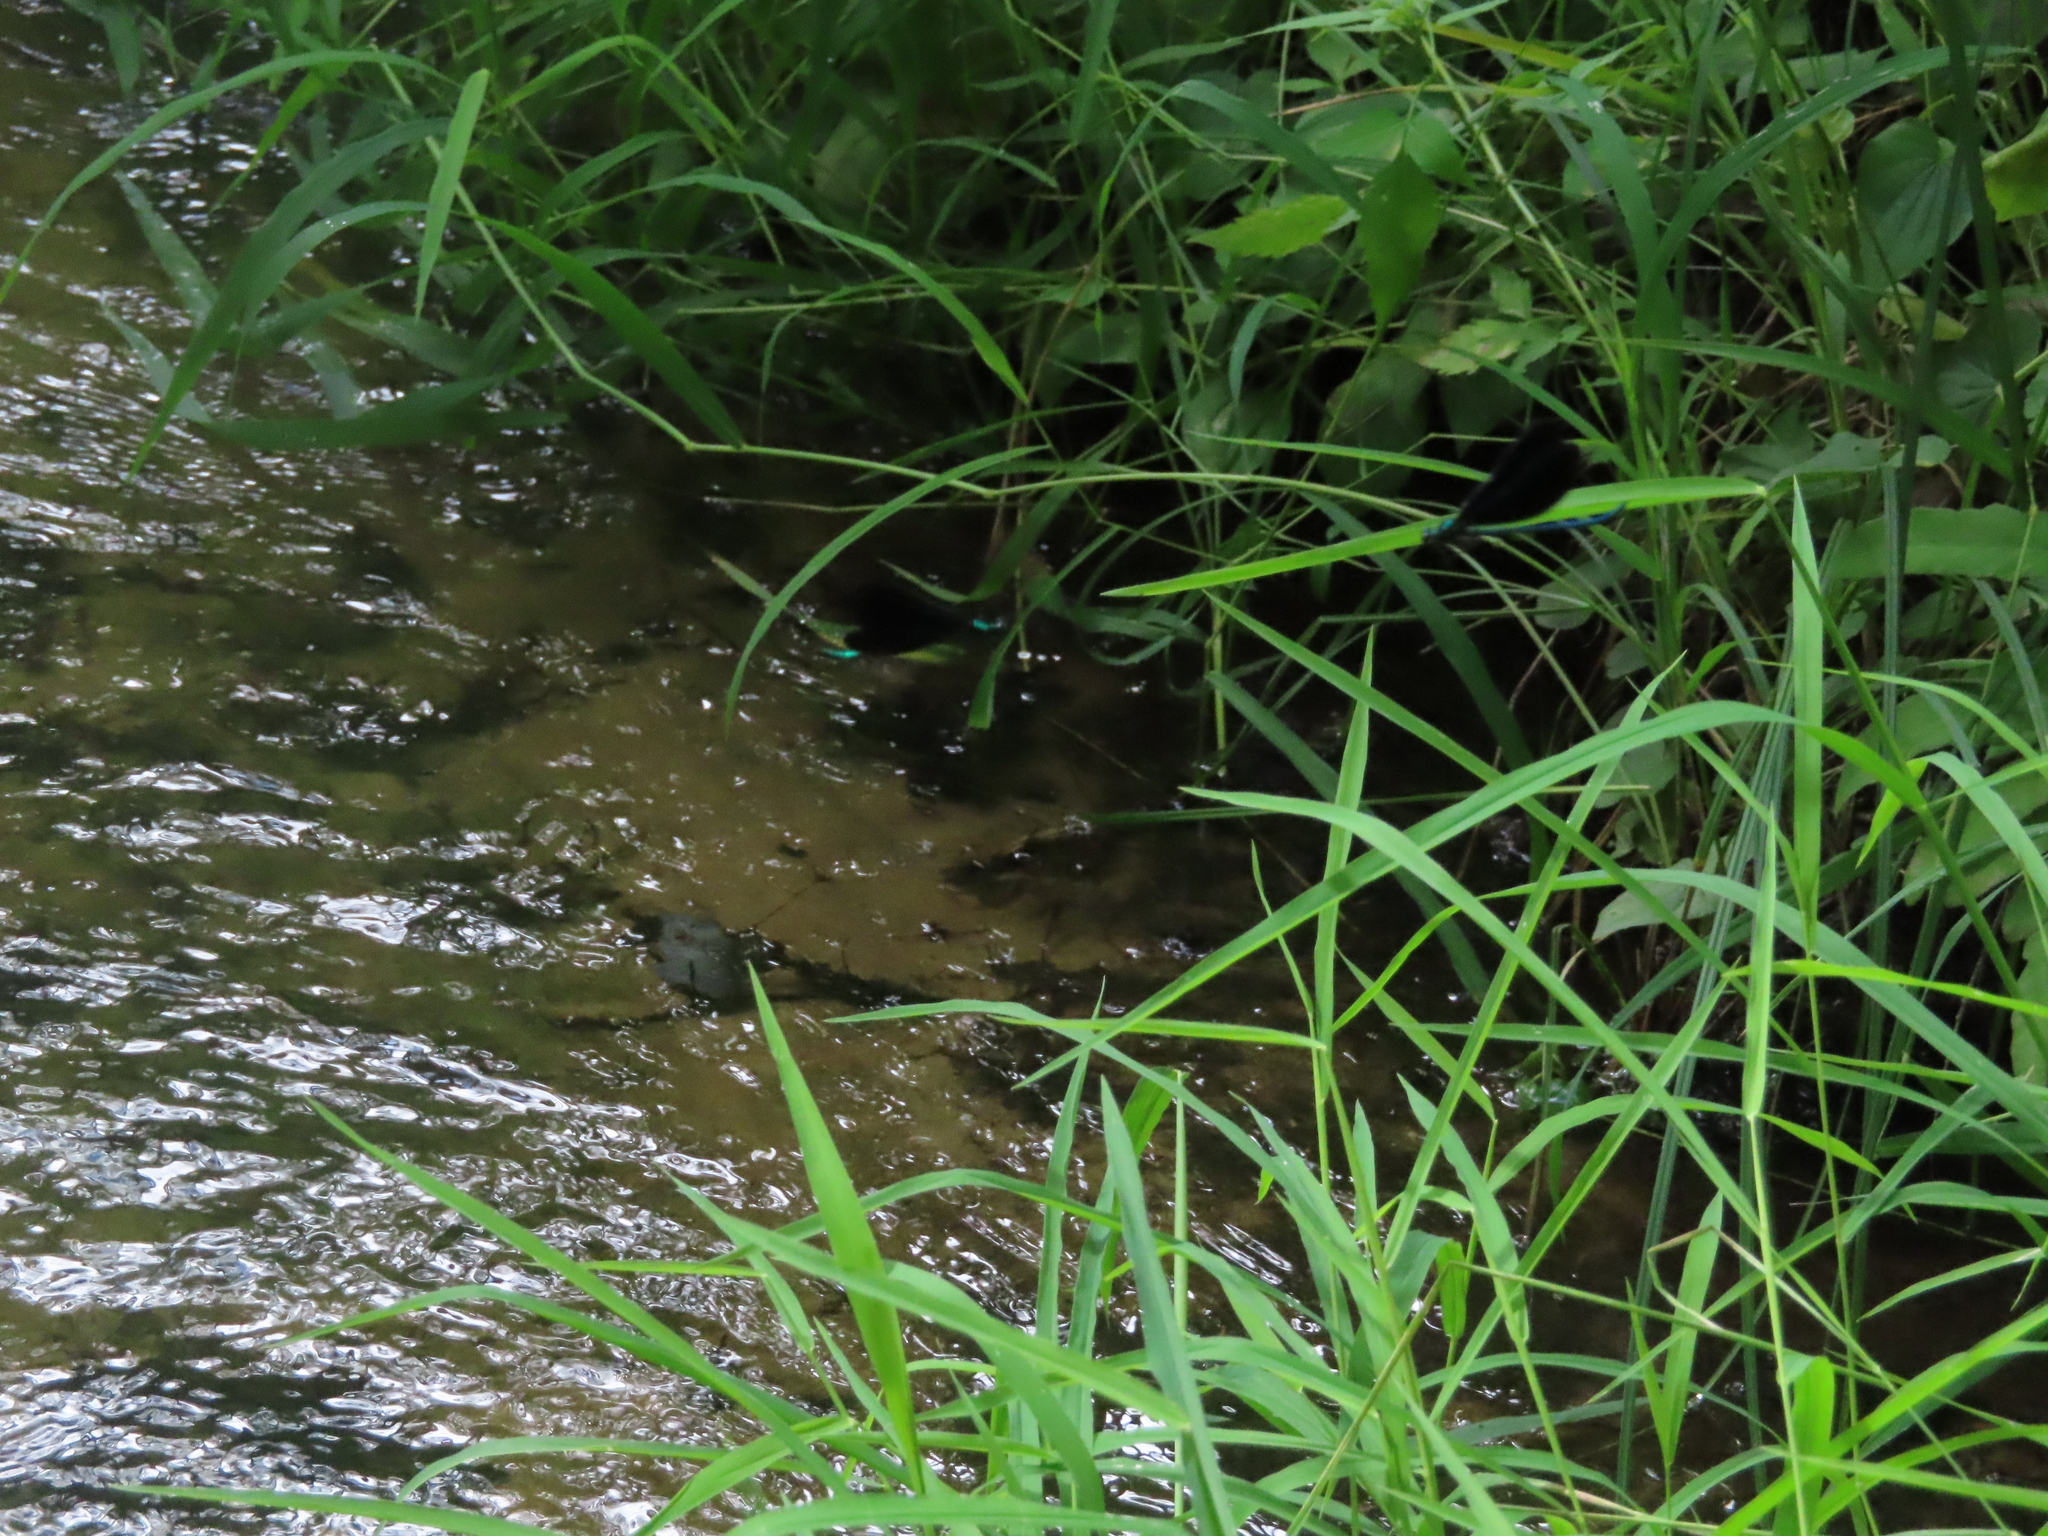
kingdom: Animalia
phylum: Arthropoda
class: Insecta
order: Odonata
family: Calopterygidae
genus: Calopteryx
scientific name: Calopteryx maculata
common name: Ebony jewelwing
